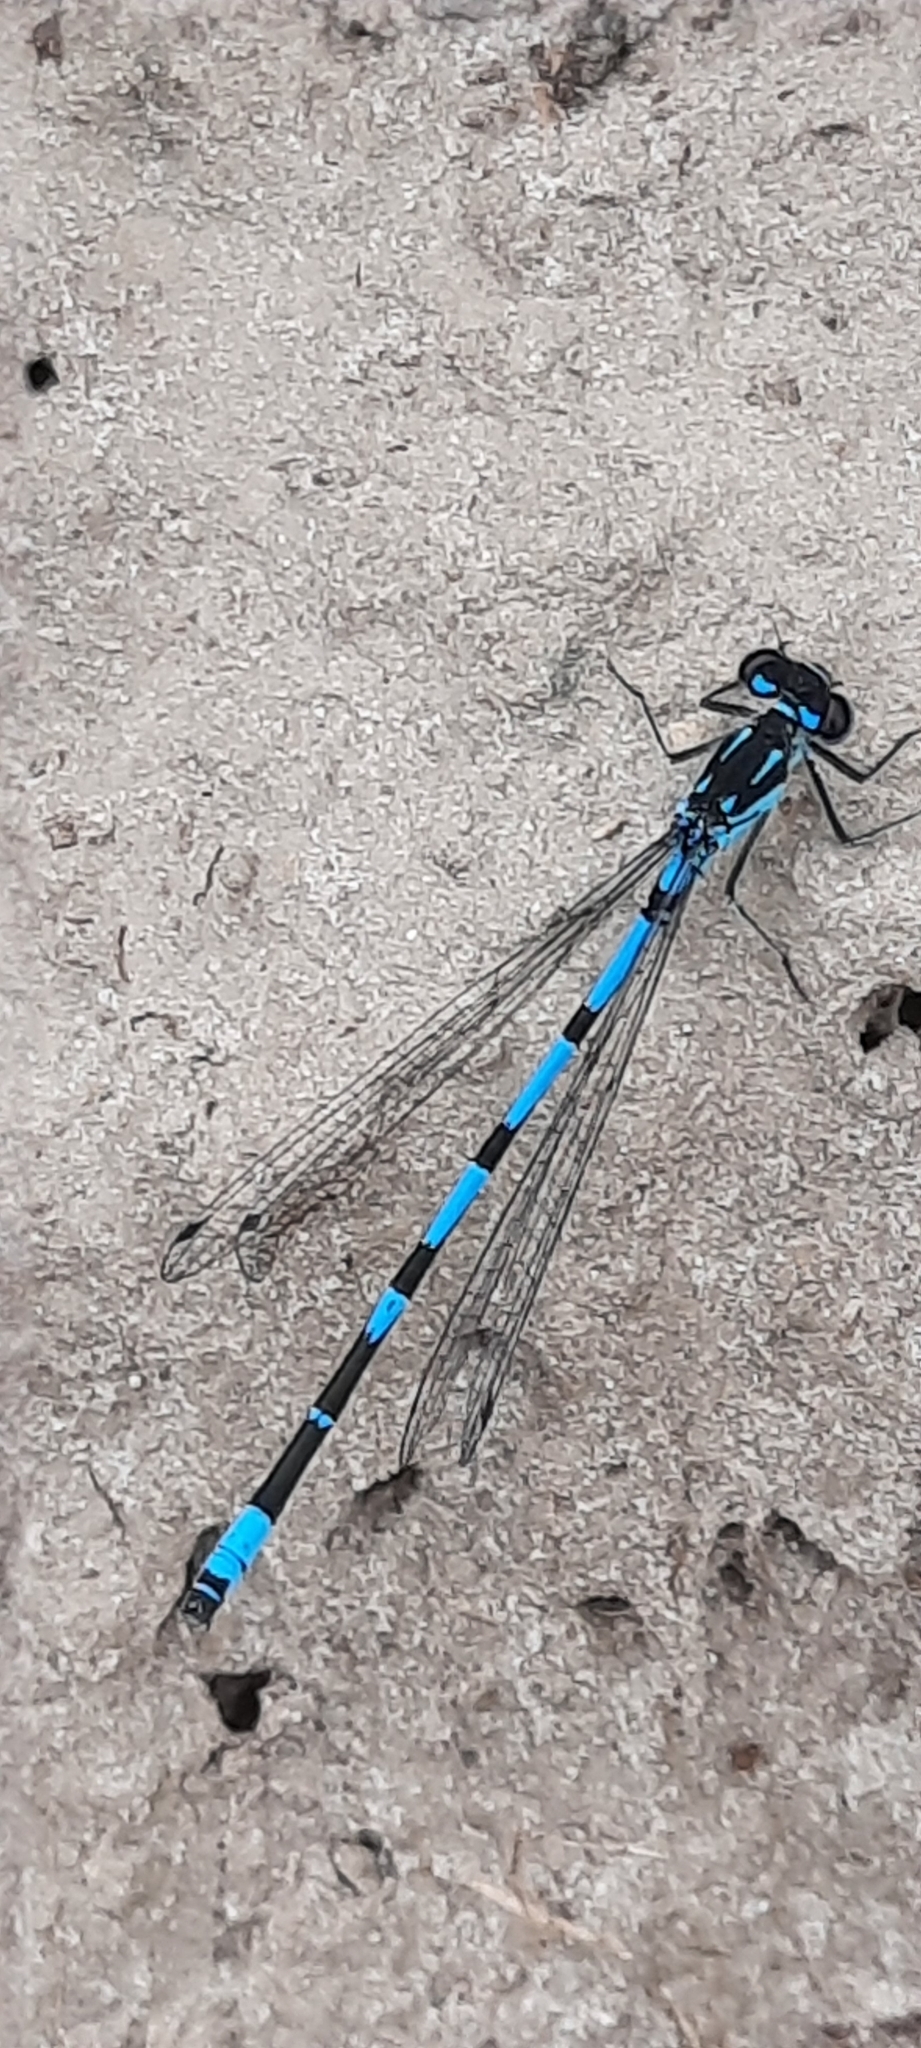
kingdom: Animalia
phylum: Arthropoda
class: Insecta
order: Odonata
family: Coenagrionidae
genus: Coenagrion
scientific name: Coenagrion pulchellum
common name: Variable bluet
